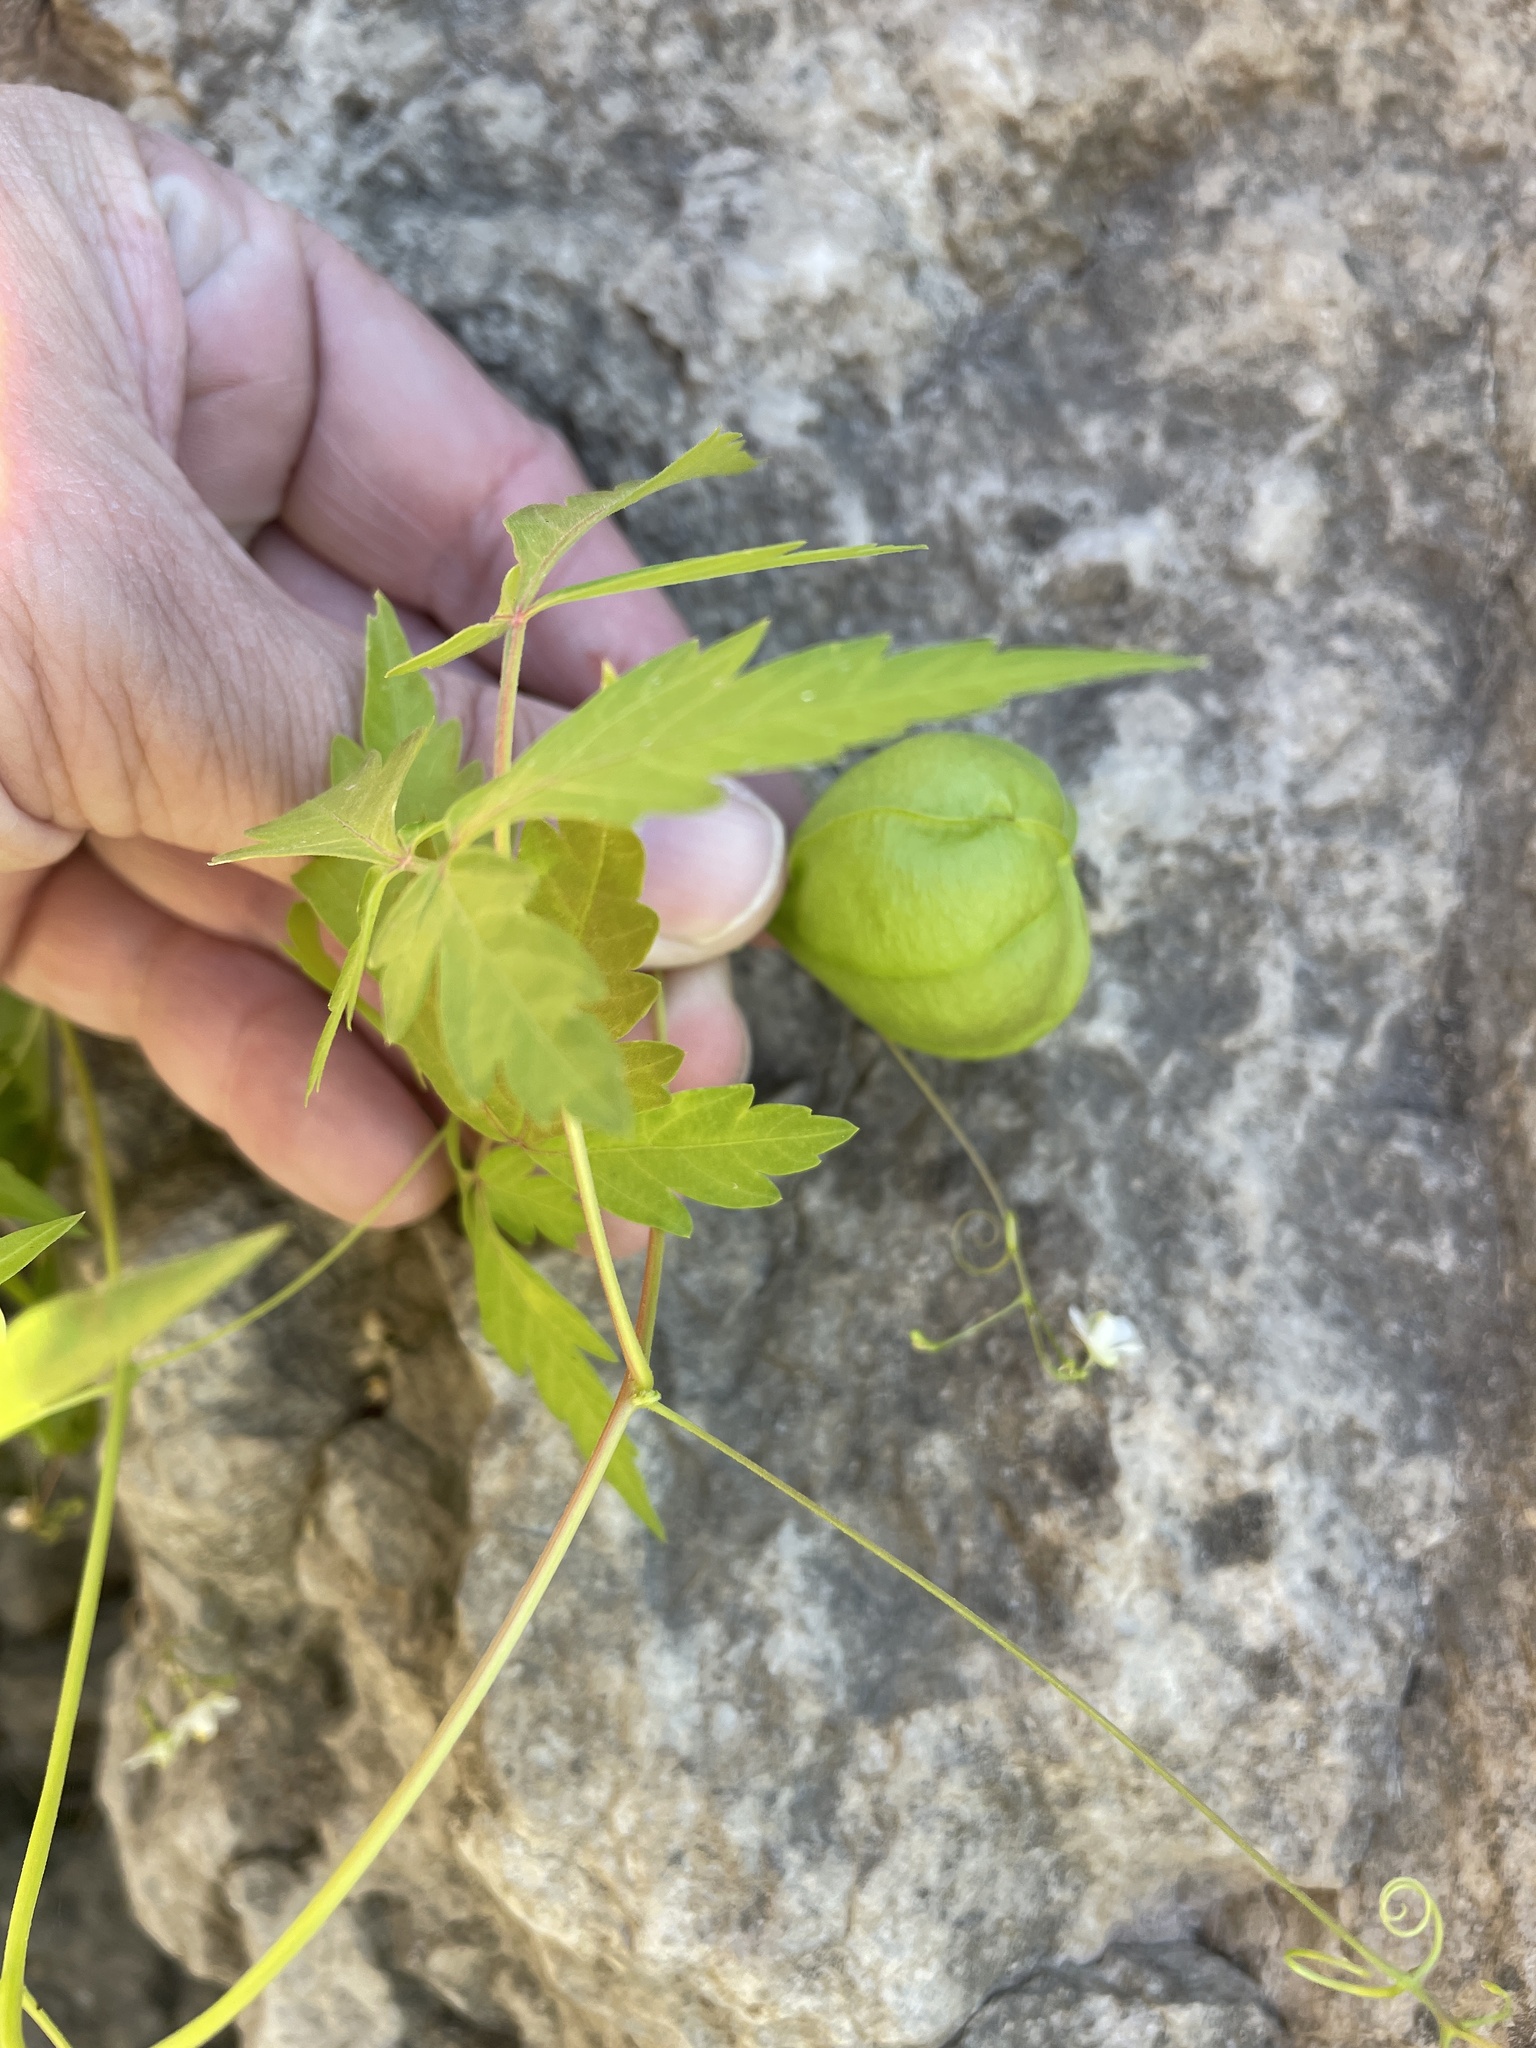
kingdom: Plantae
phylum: Tracheophyta
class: Magnoliopsida
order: Sapindales
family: Sapindaceae
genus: Cardiospermum
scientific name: Cardiospermum halicacabum
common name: Balloon vine
